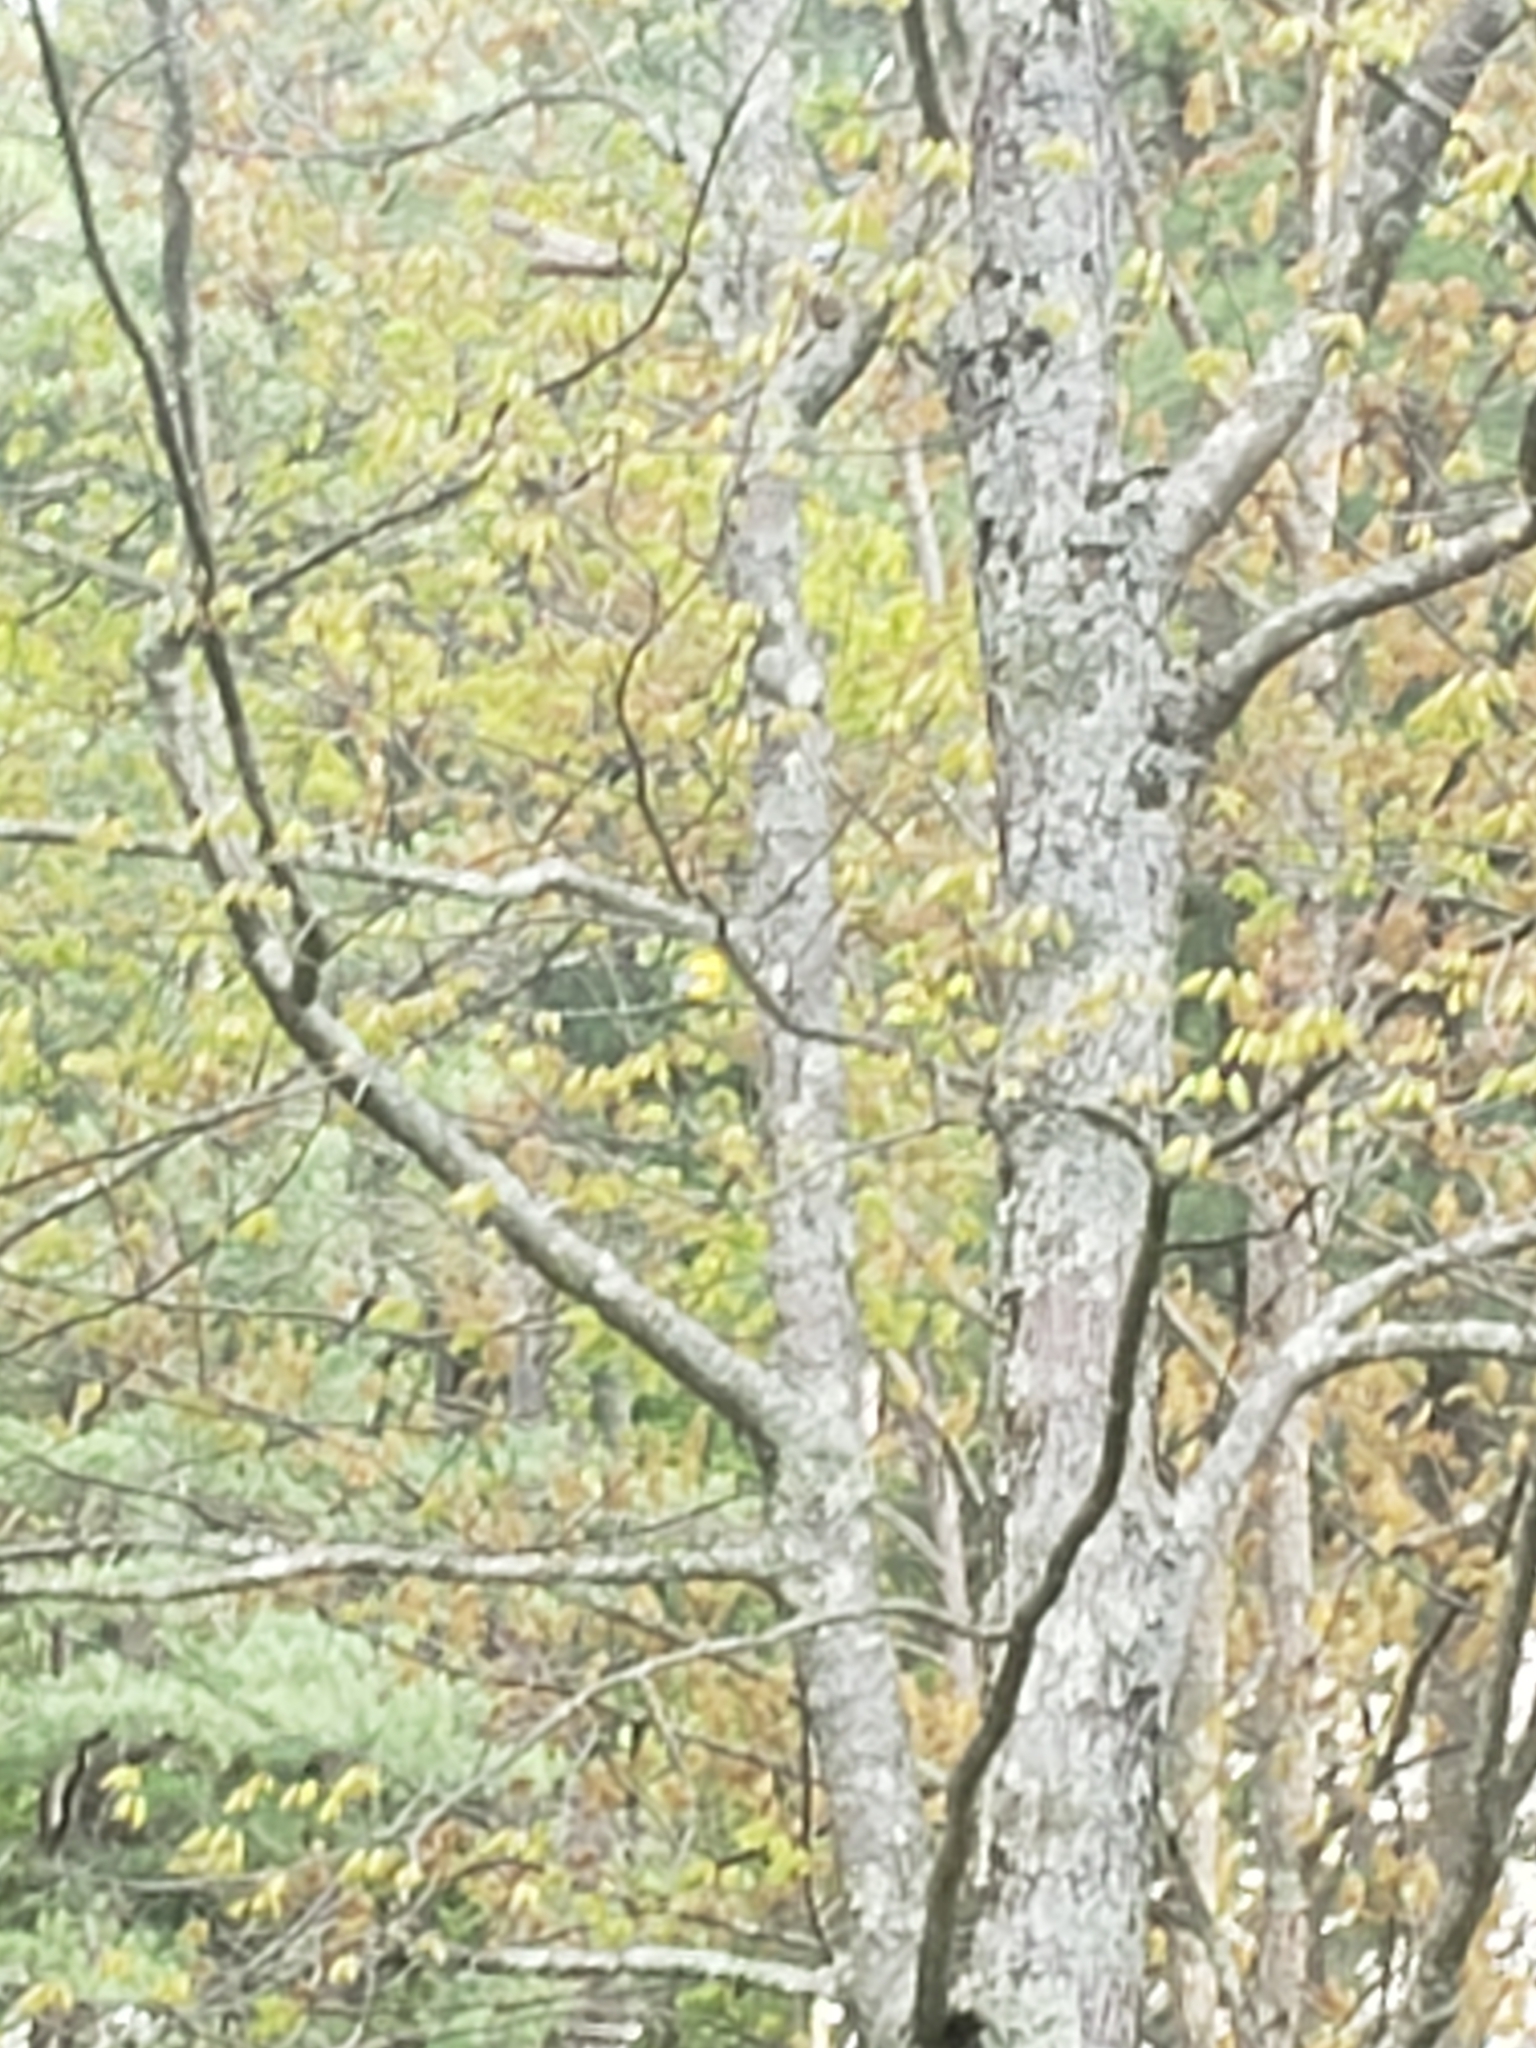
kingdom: Animalia
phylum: Chordata
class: Aves
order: Passeriformes
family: Fringillidae
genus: Spinus
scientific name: Spinus tristis
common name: American goldfinch
